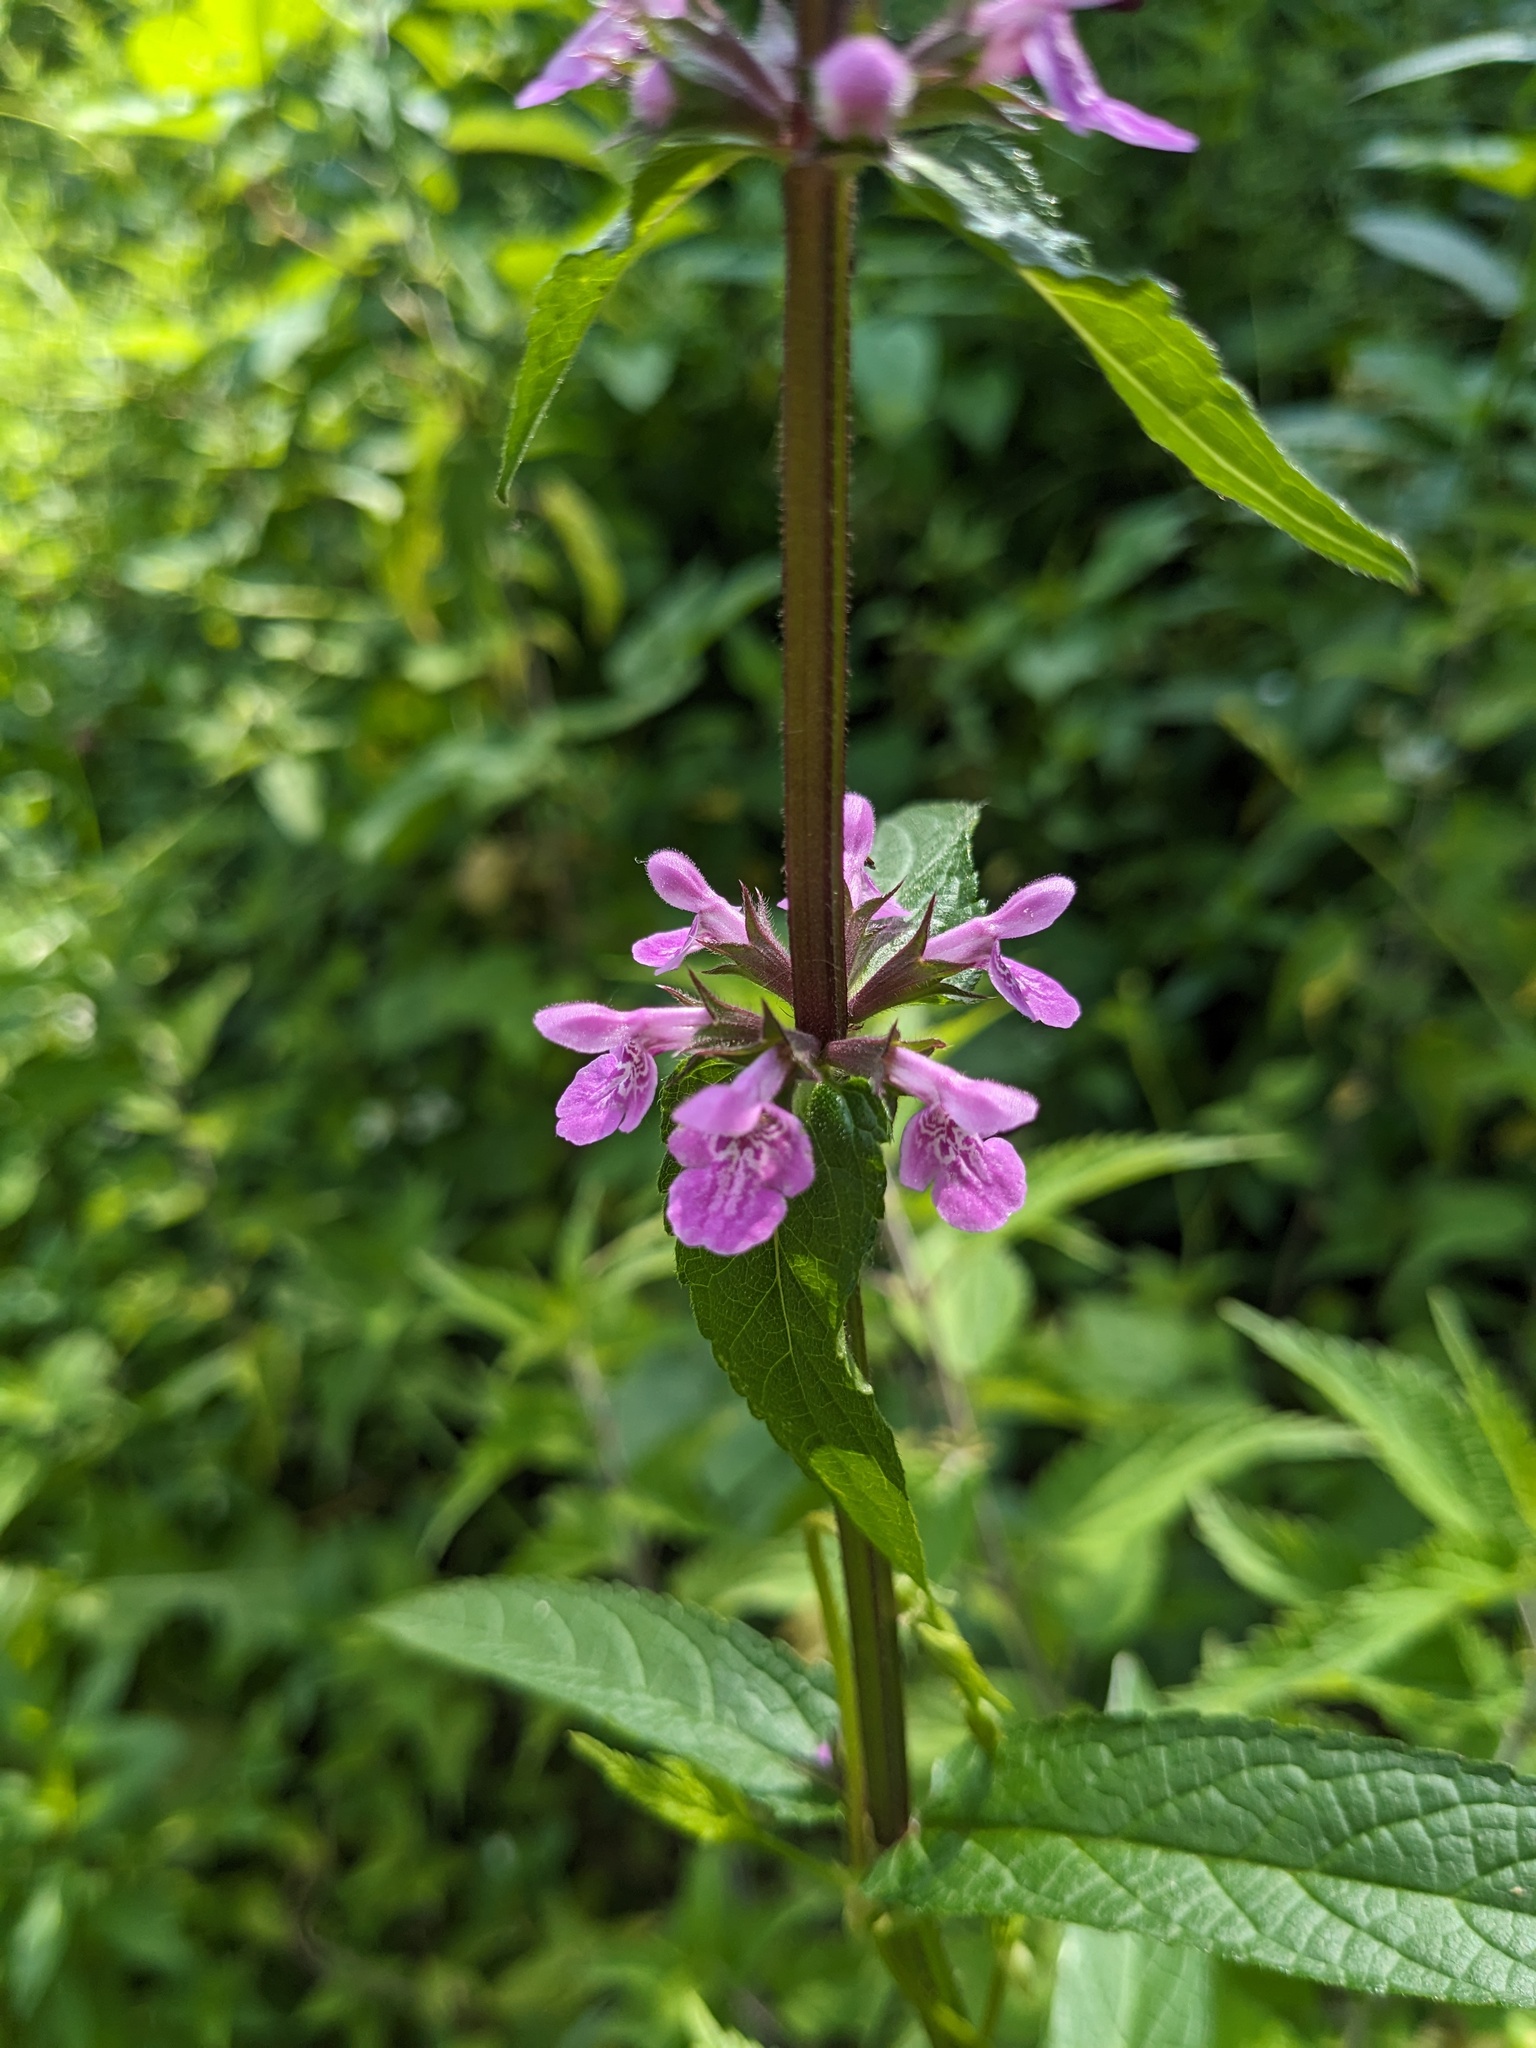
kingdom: Plantae
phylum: Tracheophyta
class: Magnoliopsida
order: Lamiales
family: Lamiaceae
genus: Stachys
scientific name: Stachys palustris
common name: Marsh woundwort
